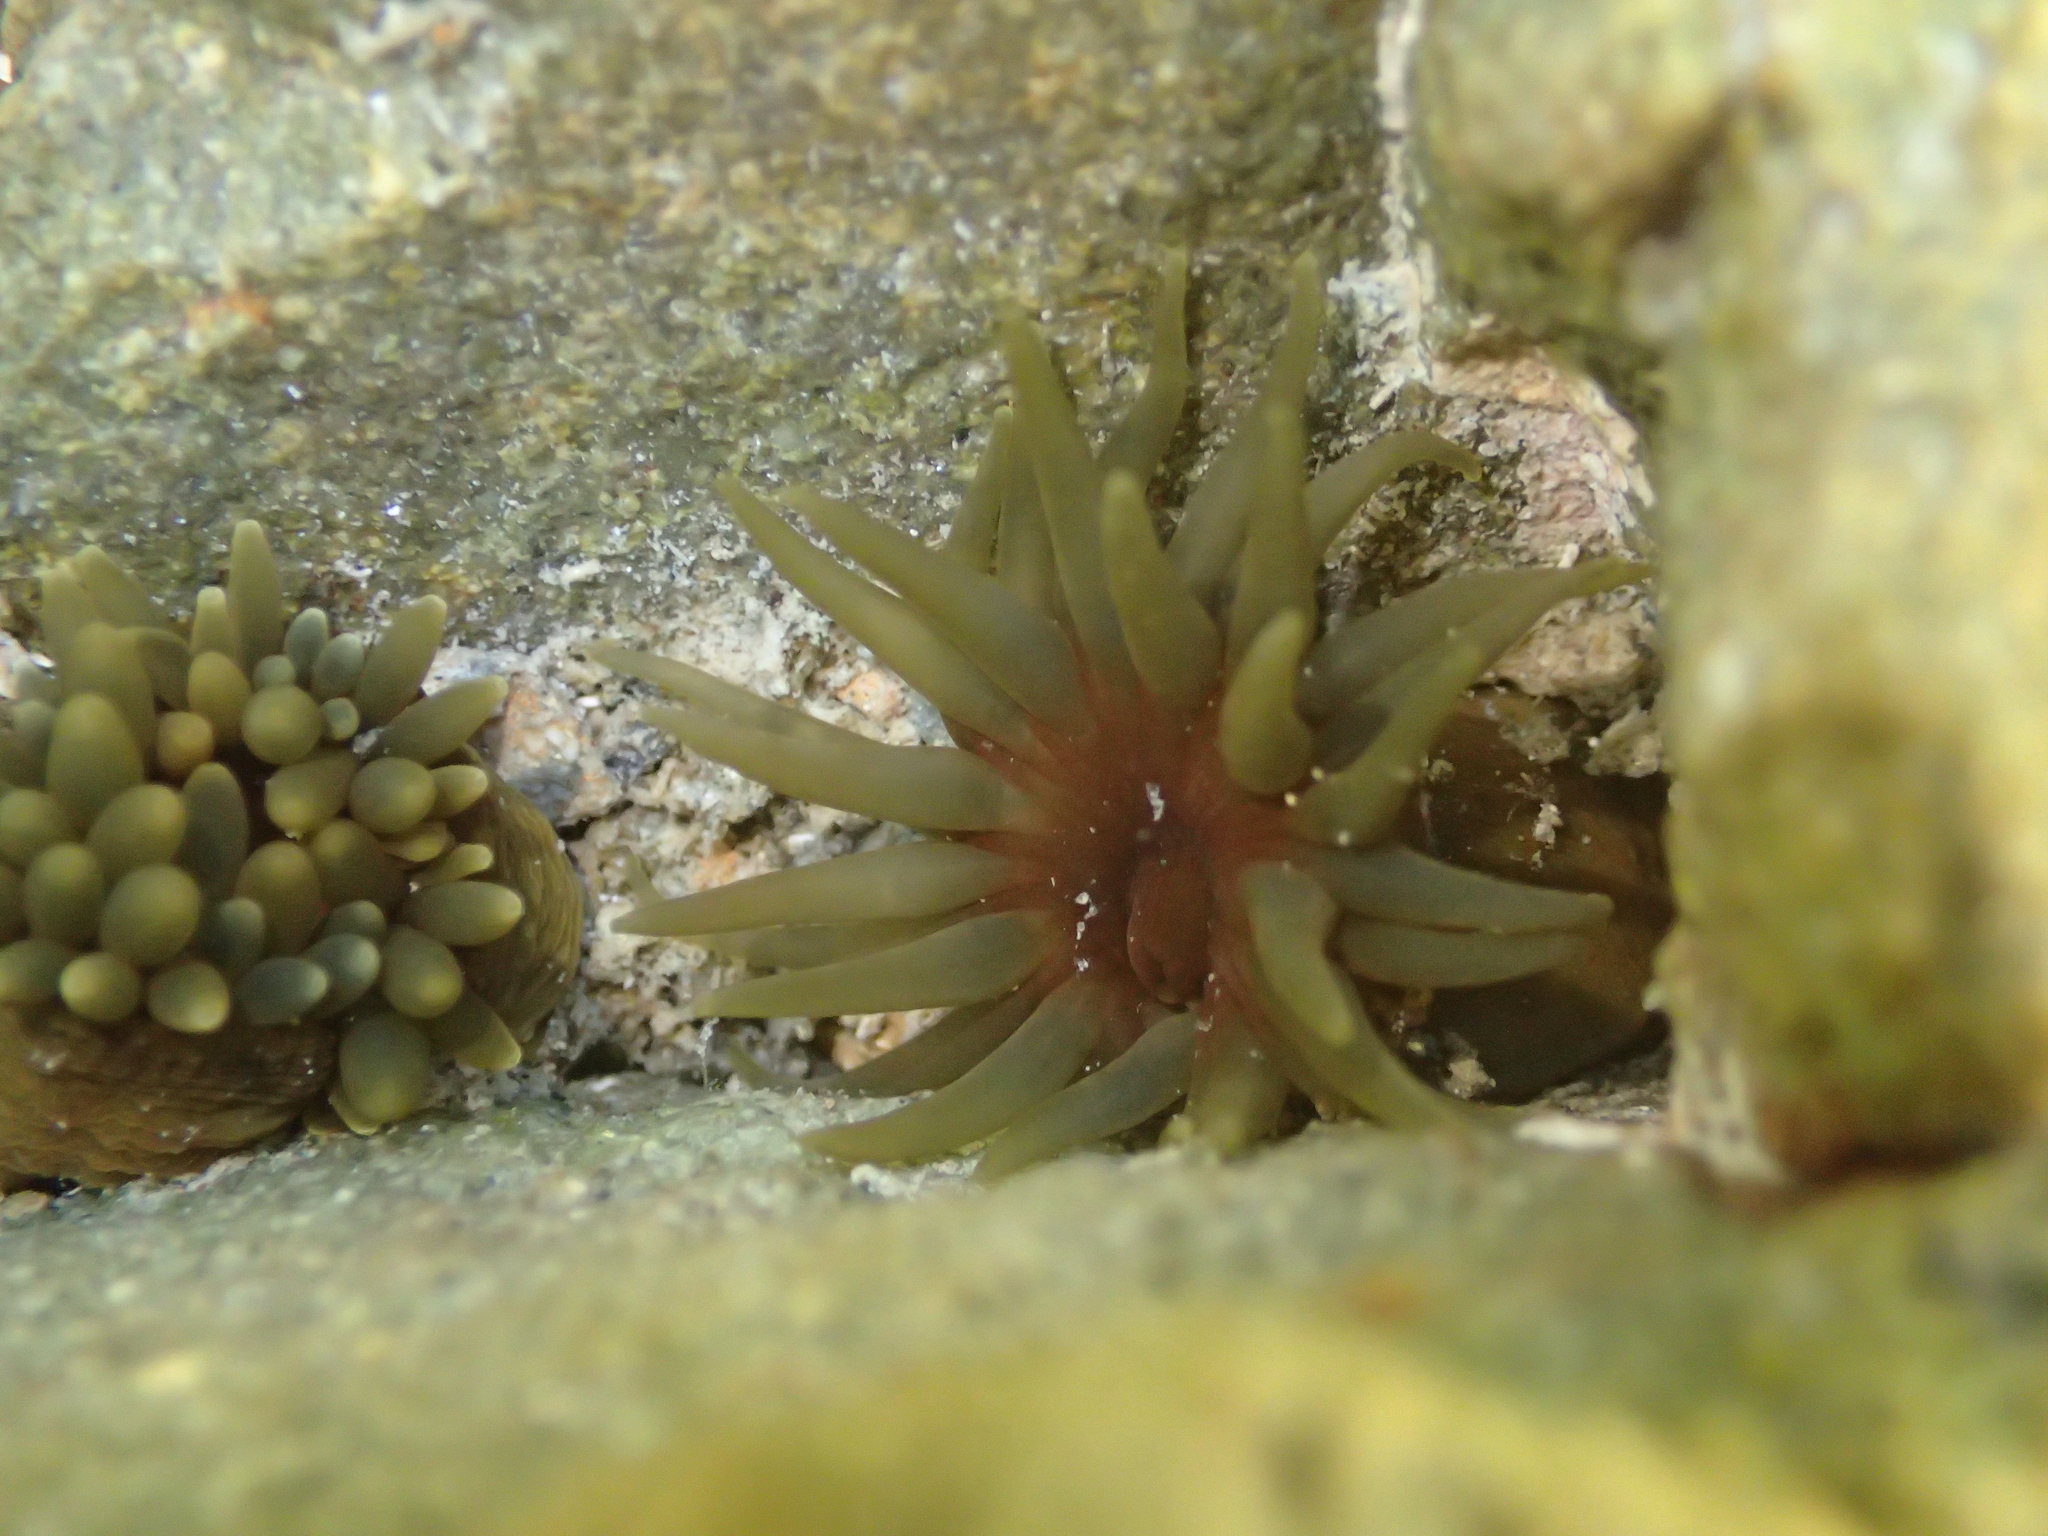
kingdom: Animalia
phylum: Cnidaria
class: Anthozoa
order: Actiniaria
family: Actiniidae
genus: Isactinia
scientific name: Isactinia olivacea
